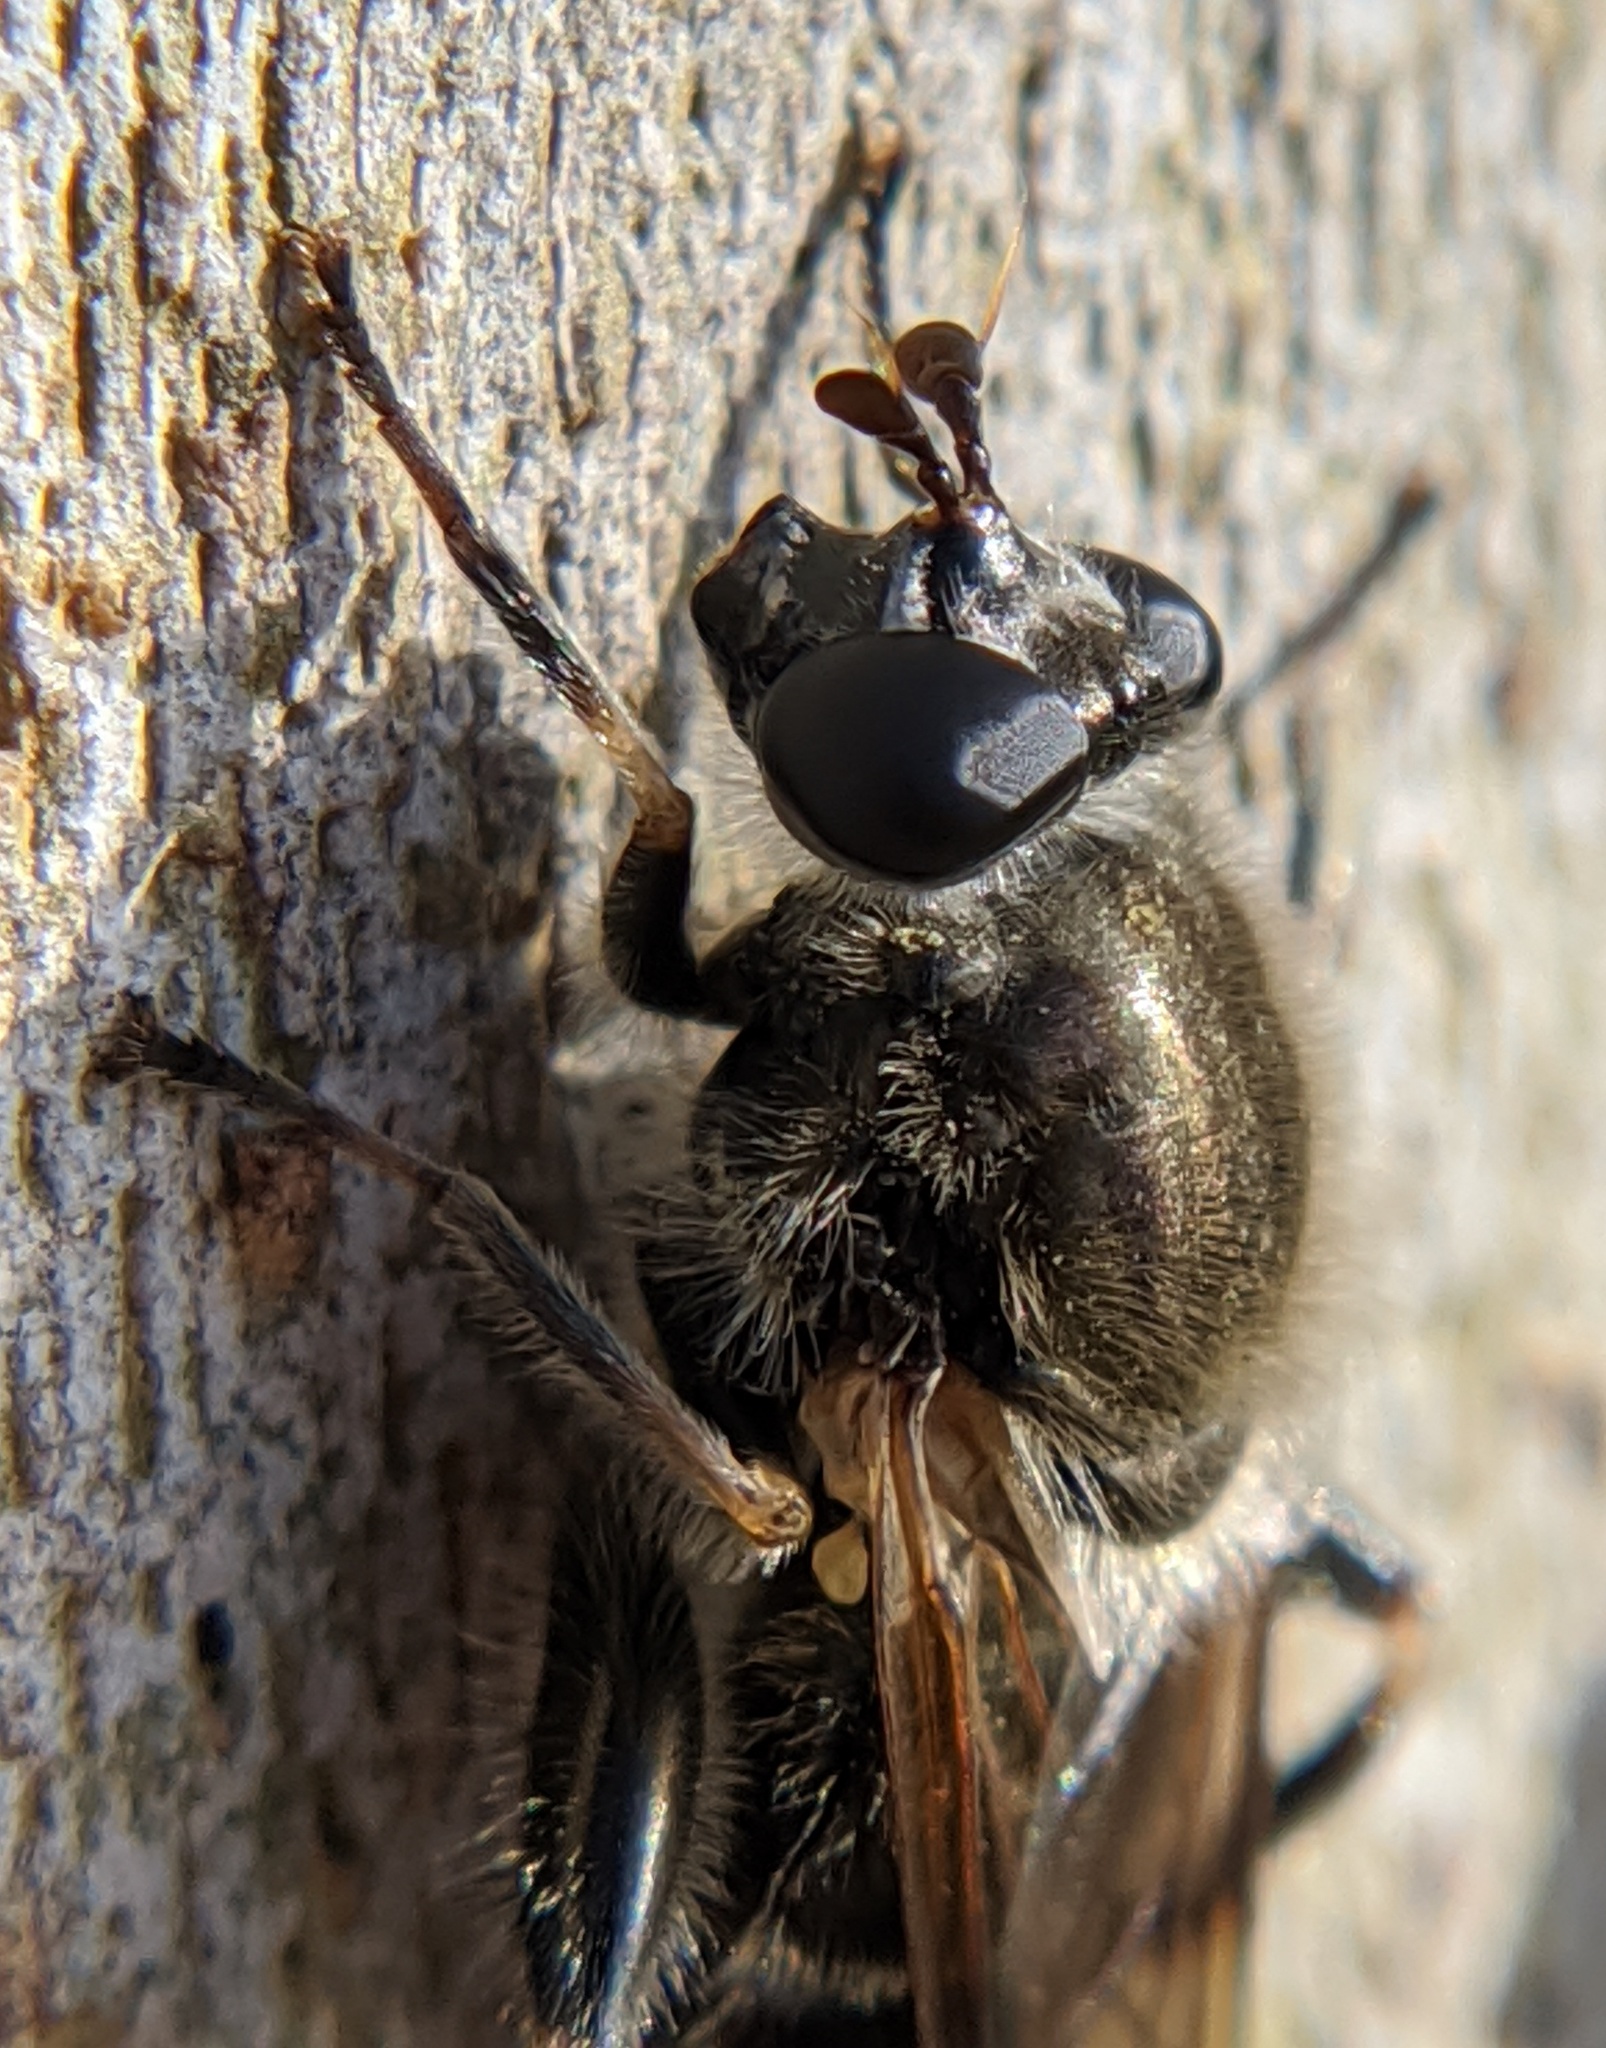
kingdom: Animalia
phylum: Arthropoda
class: Insecta
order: Diptera
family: Syrphidae
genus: Brachypalpus
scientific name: Brachypalpus oarus
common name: Eastern catkin fly
